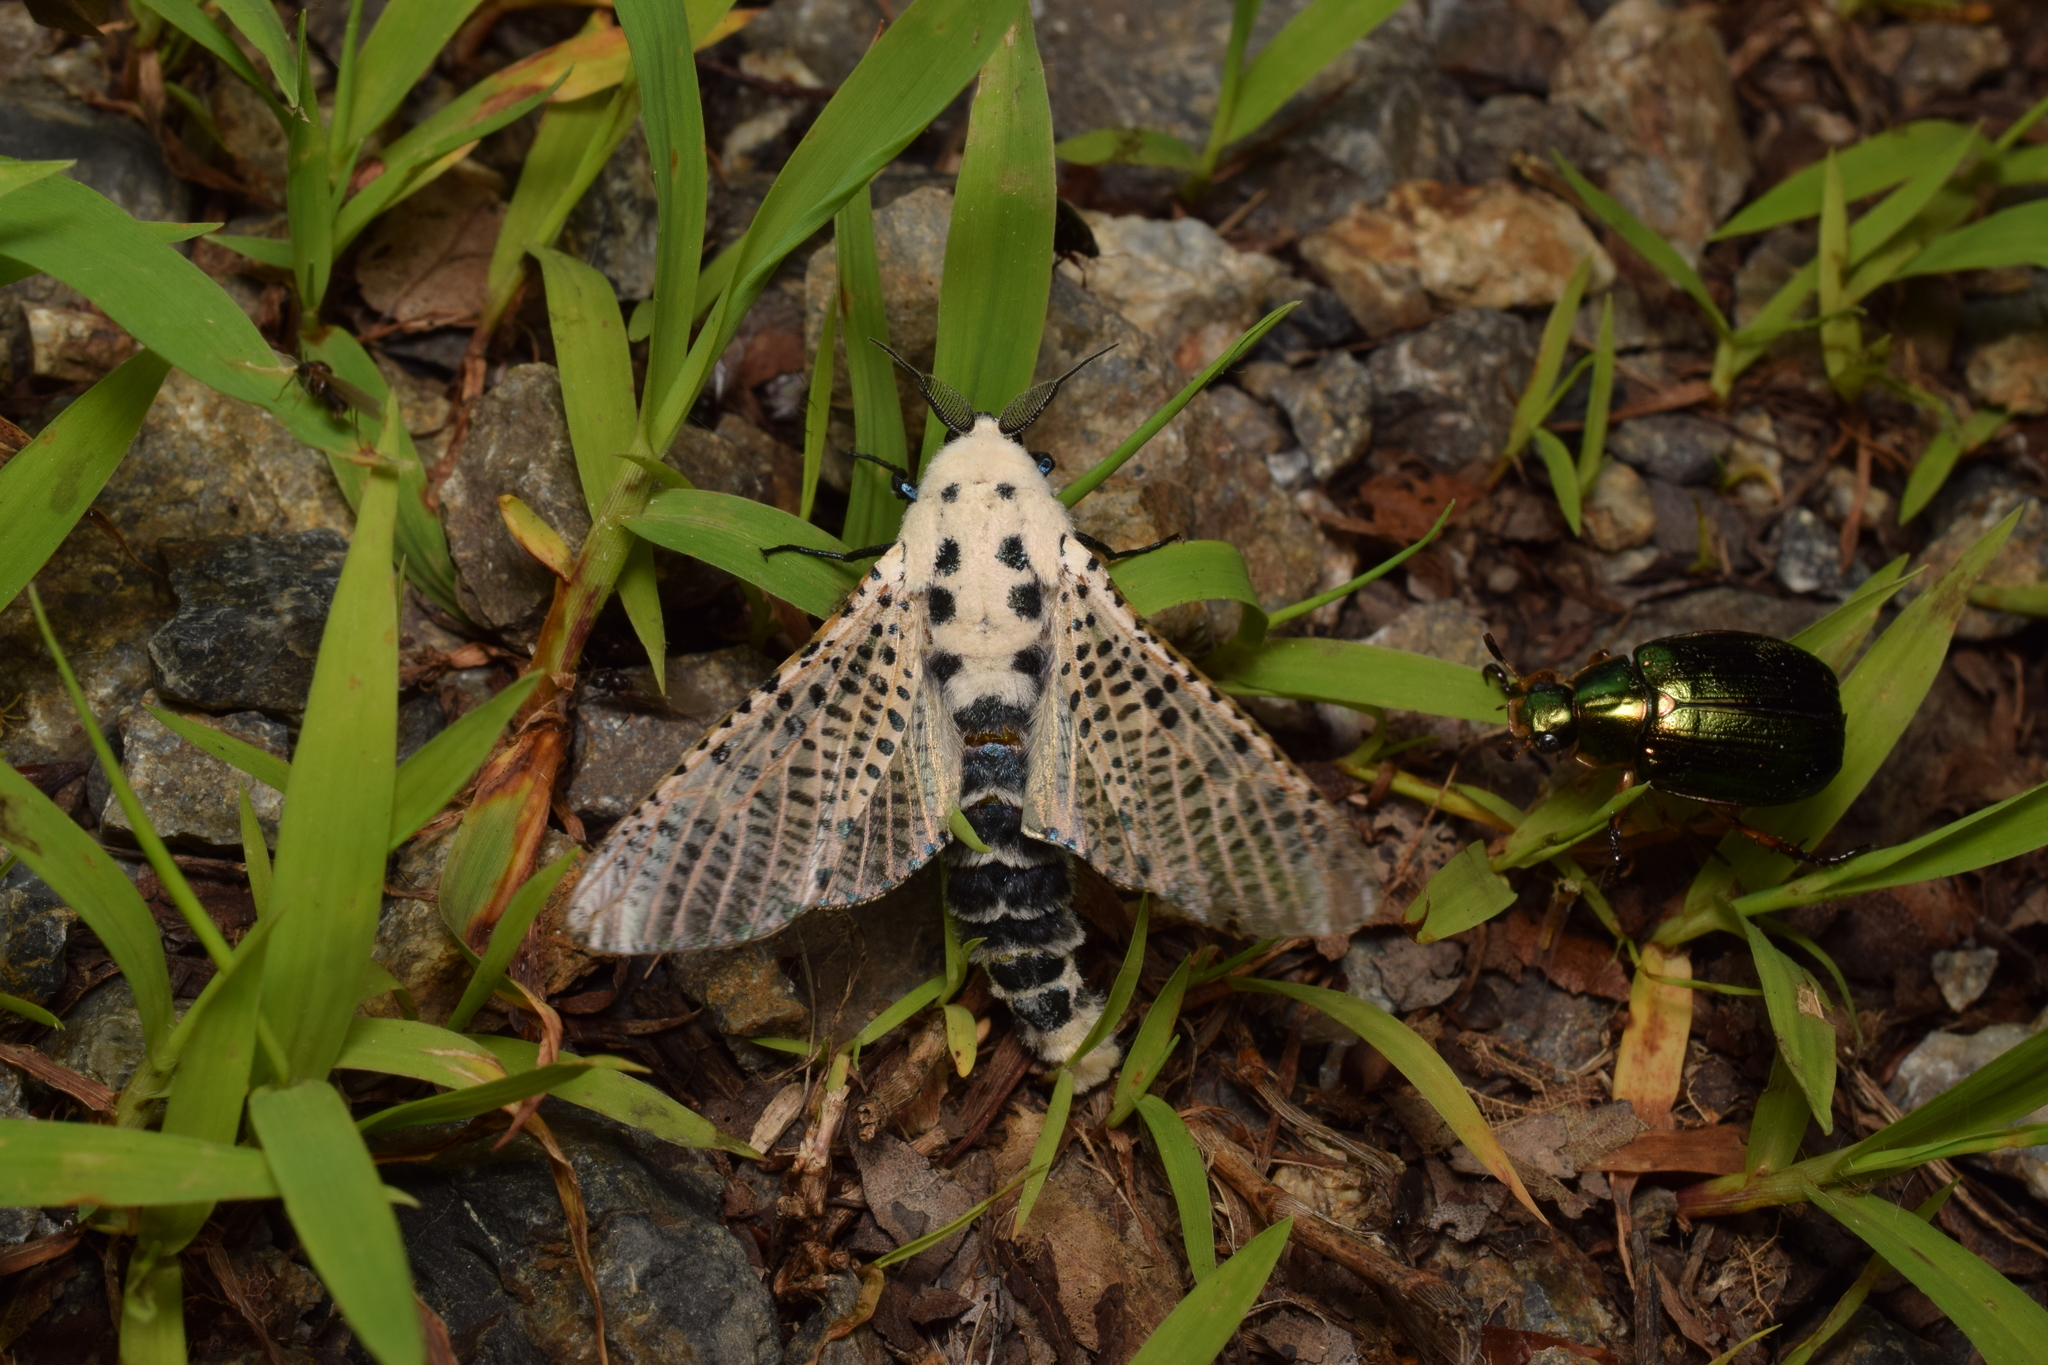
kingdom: Animalia
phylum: Arthropoda
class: Insecta
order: Lepidoptera
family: Cossidae
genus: Zeuzera
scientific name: Zeuzera multistrigata
